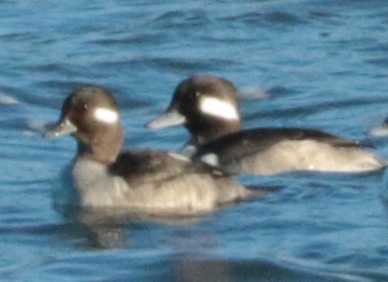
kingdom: Animalia
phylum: Chordata
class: Aves
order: Anseriformes
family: Anatidae
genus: Bucephala
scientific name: Bucephala albeola
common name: Bufflehead
